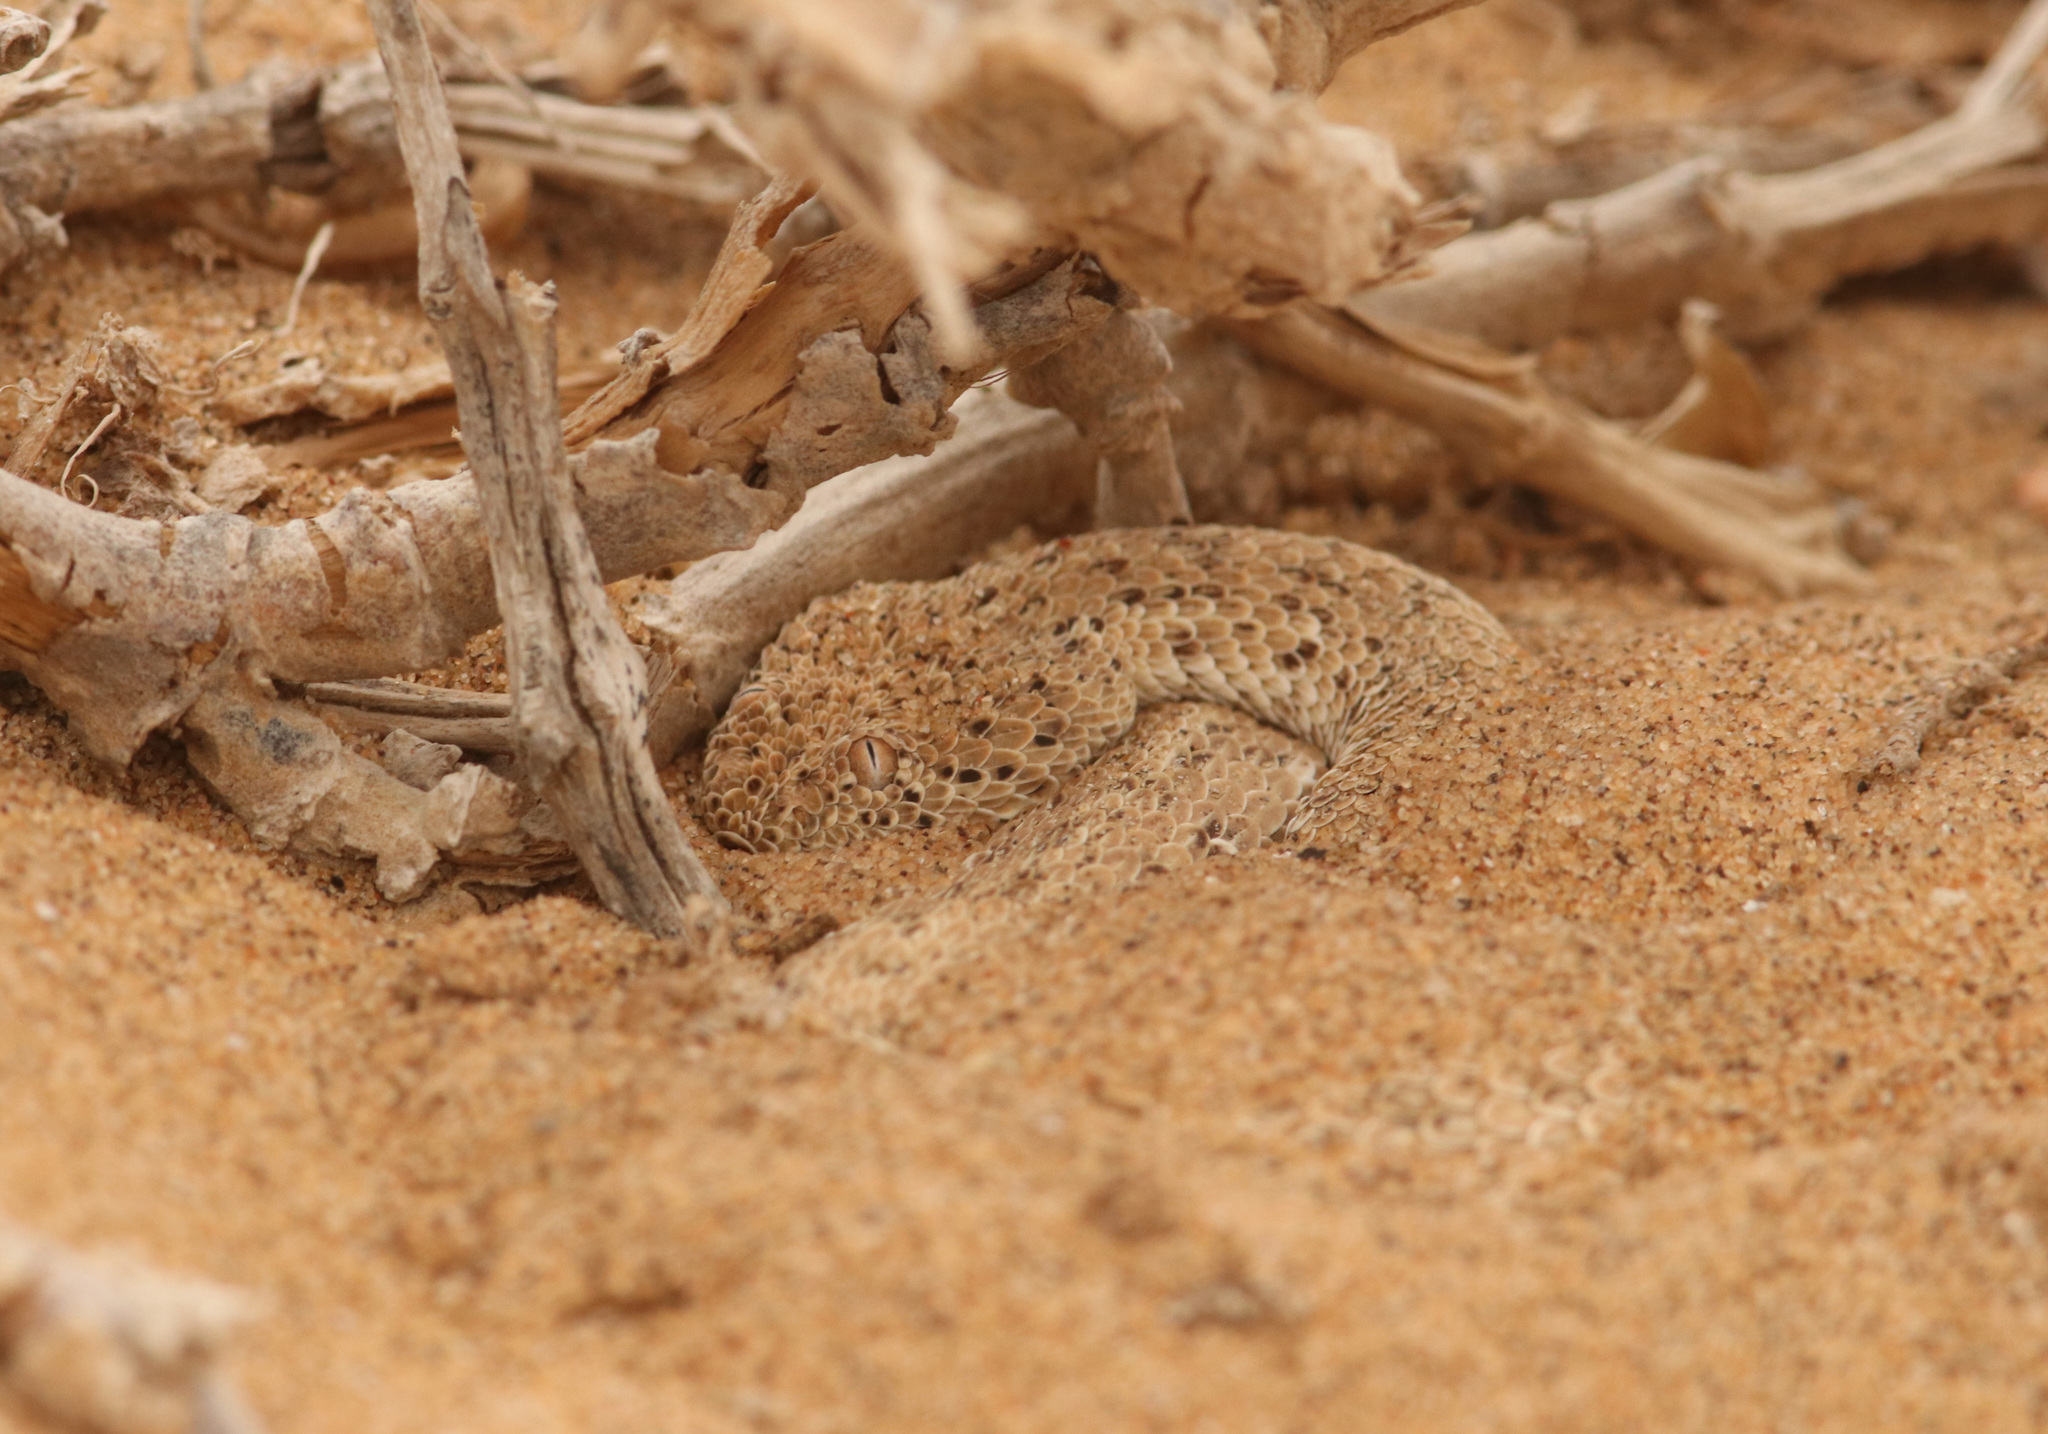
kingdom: Animalia
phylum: Chordata
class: Squamata
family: Viperidae
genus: Bitis
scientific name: Bitis peringueyi
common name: Dwarf puff adder
